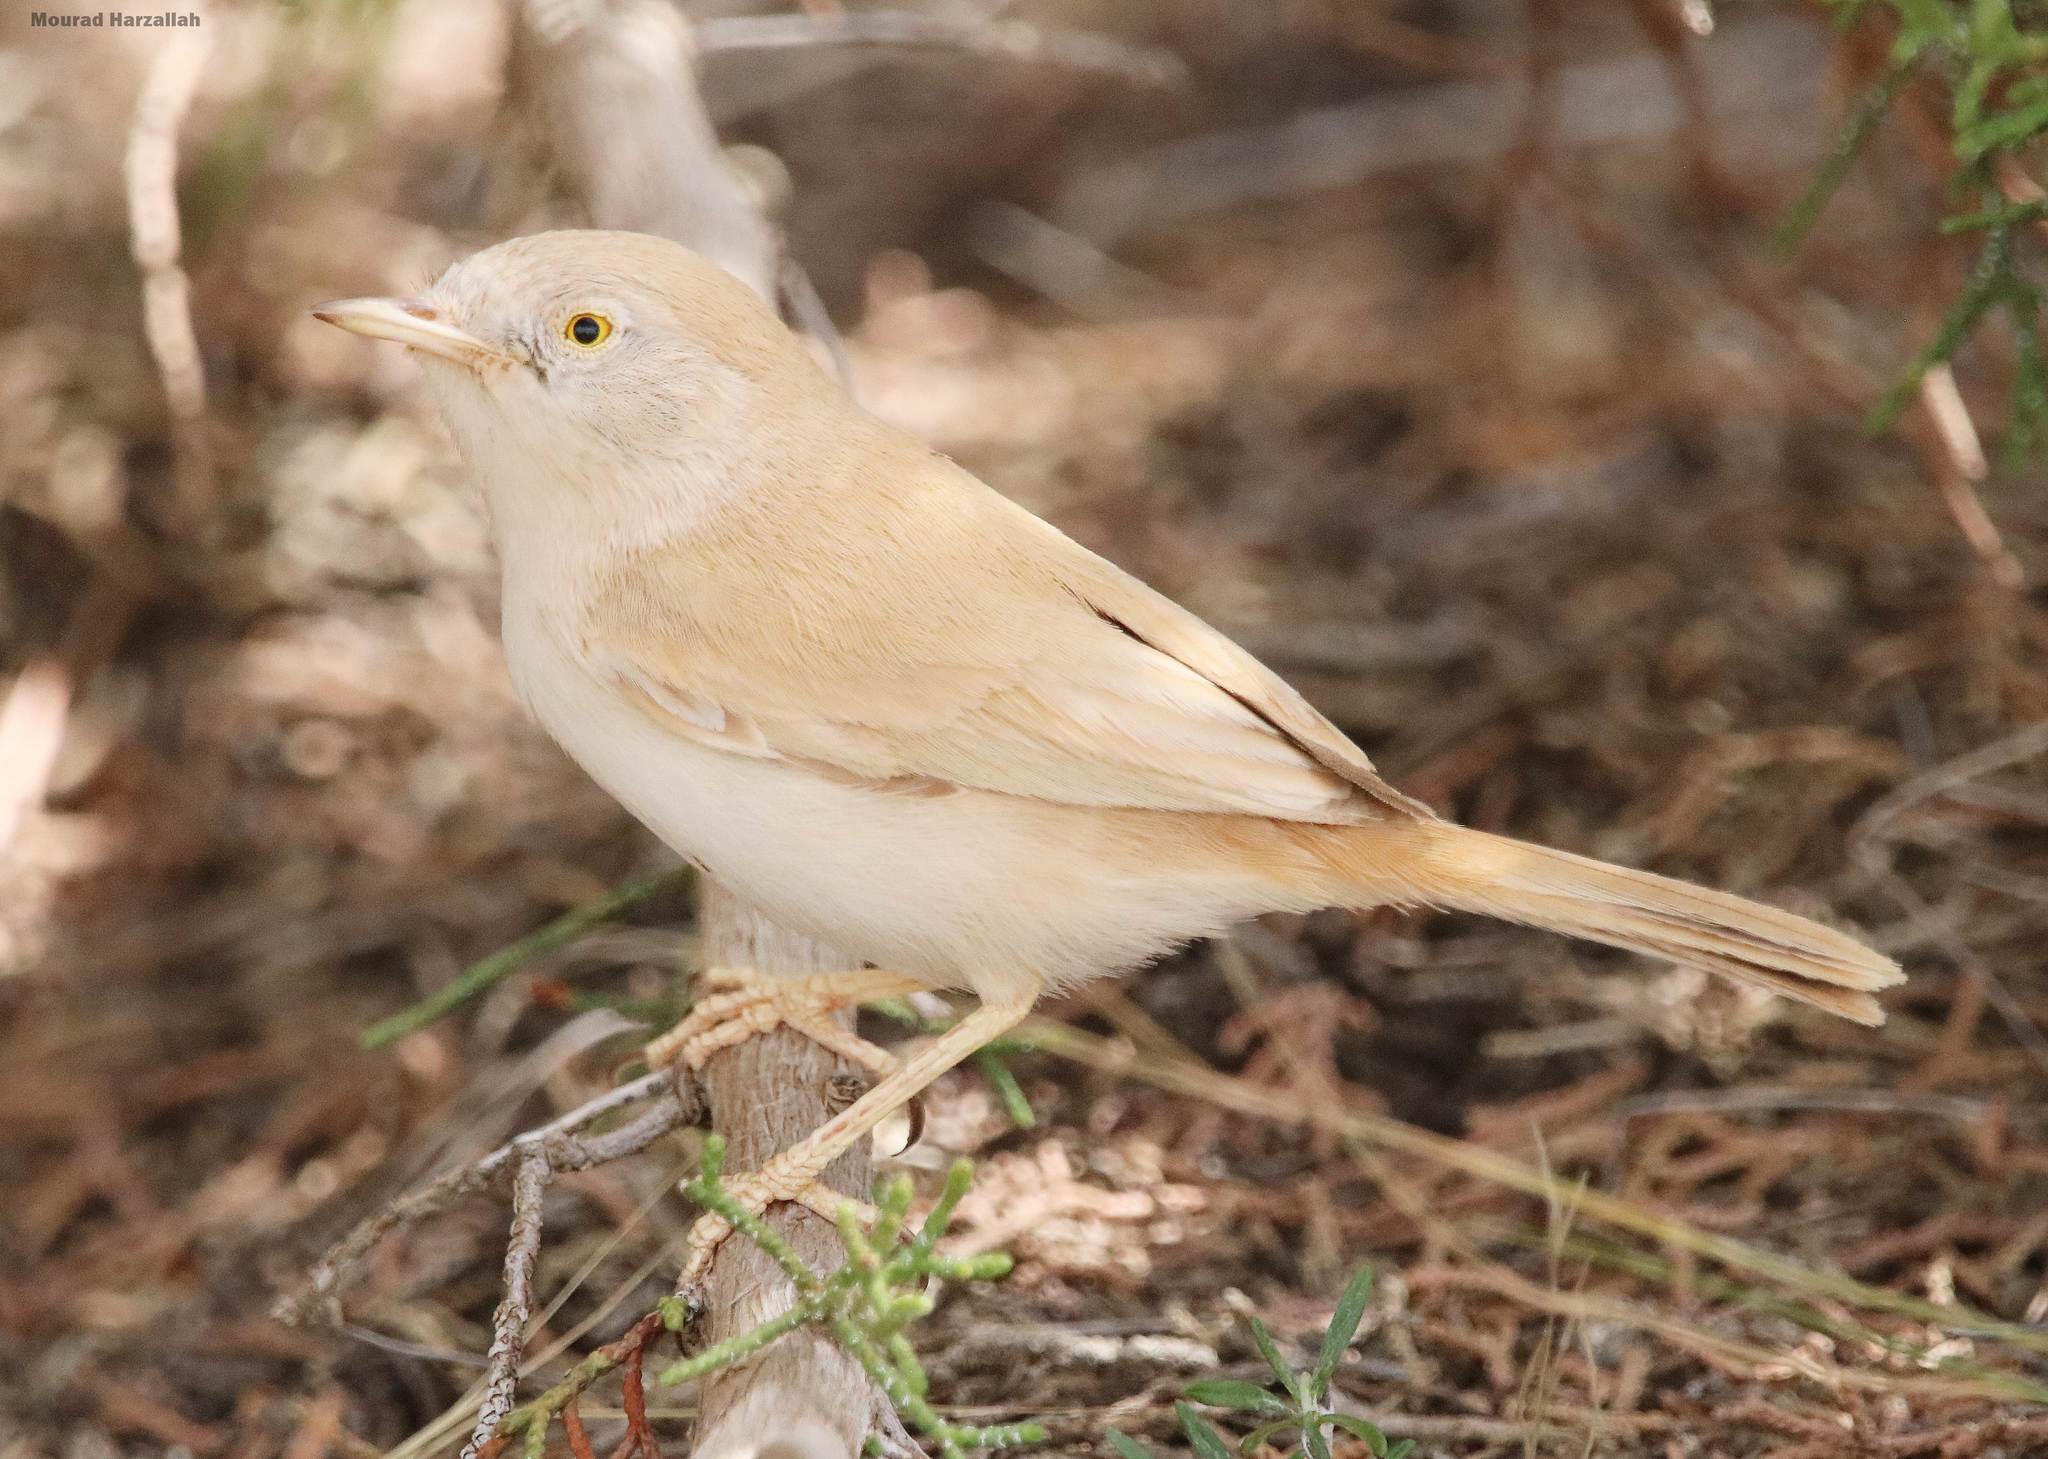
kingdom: Animalia
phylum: Chordata
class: Aves
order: Passeriformes
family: Sylviidae
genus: Sylvia
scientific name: Sylvia deserti
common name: African desert warbler
